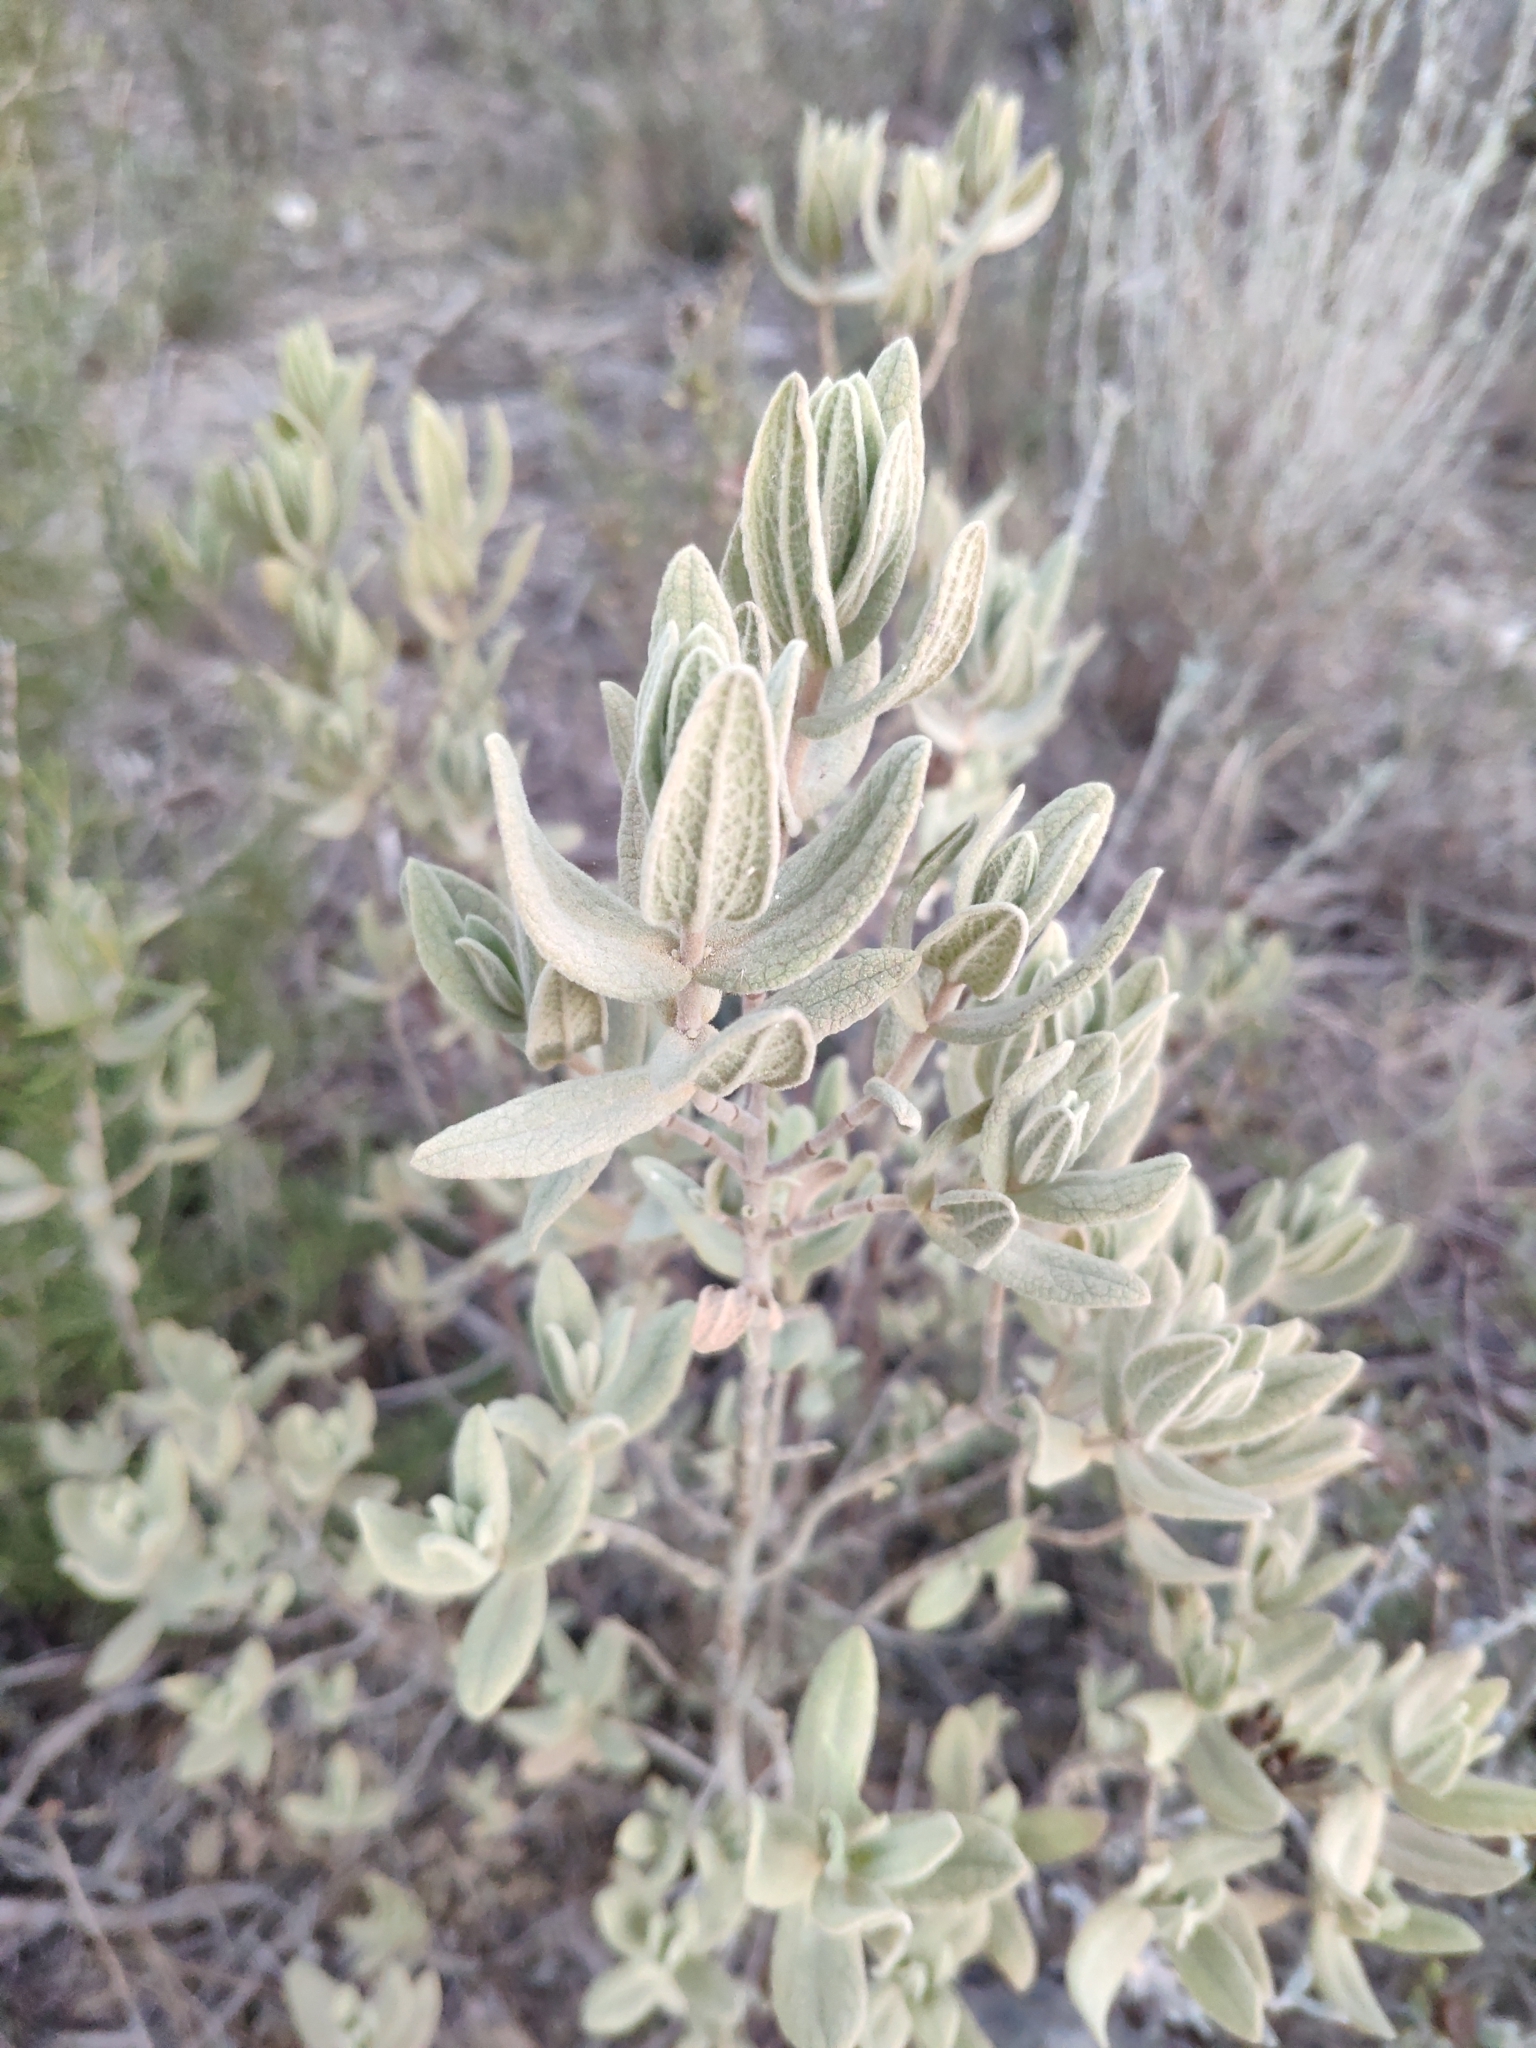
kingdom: Plantae
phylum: Tracheophyta
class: Magnoliopsida
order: Malvales
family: Cistaceae
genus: Cistus
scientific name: Cistus albidus
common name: White-leaf rock-rose
